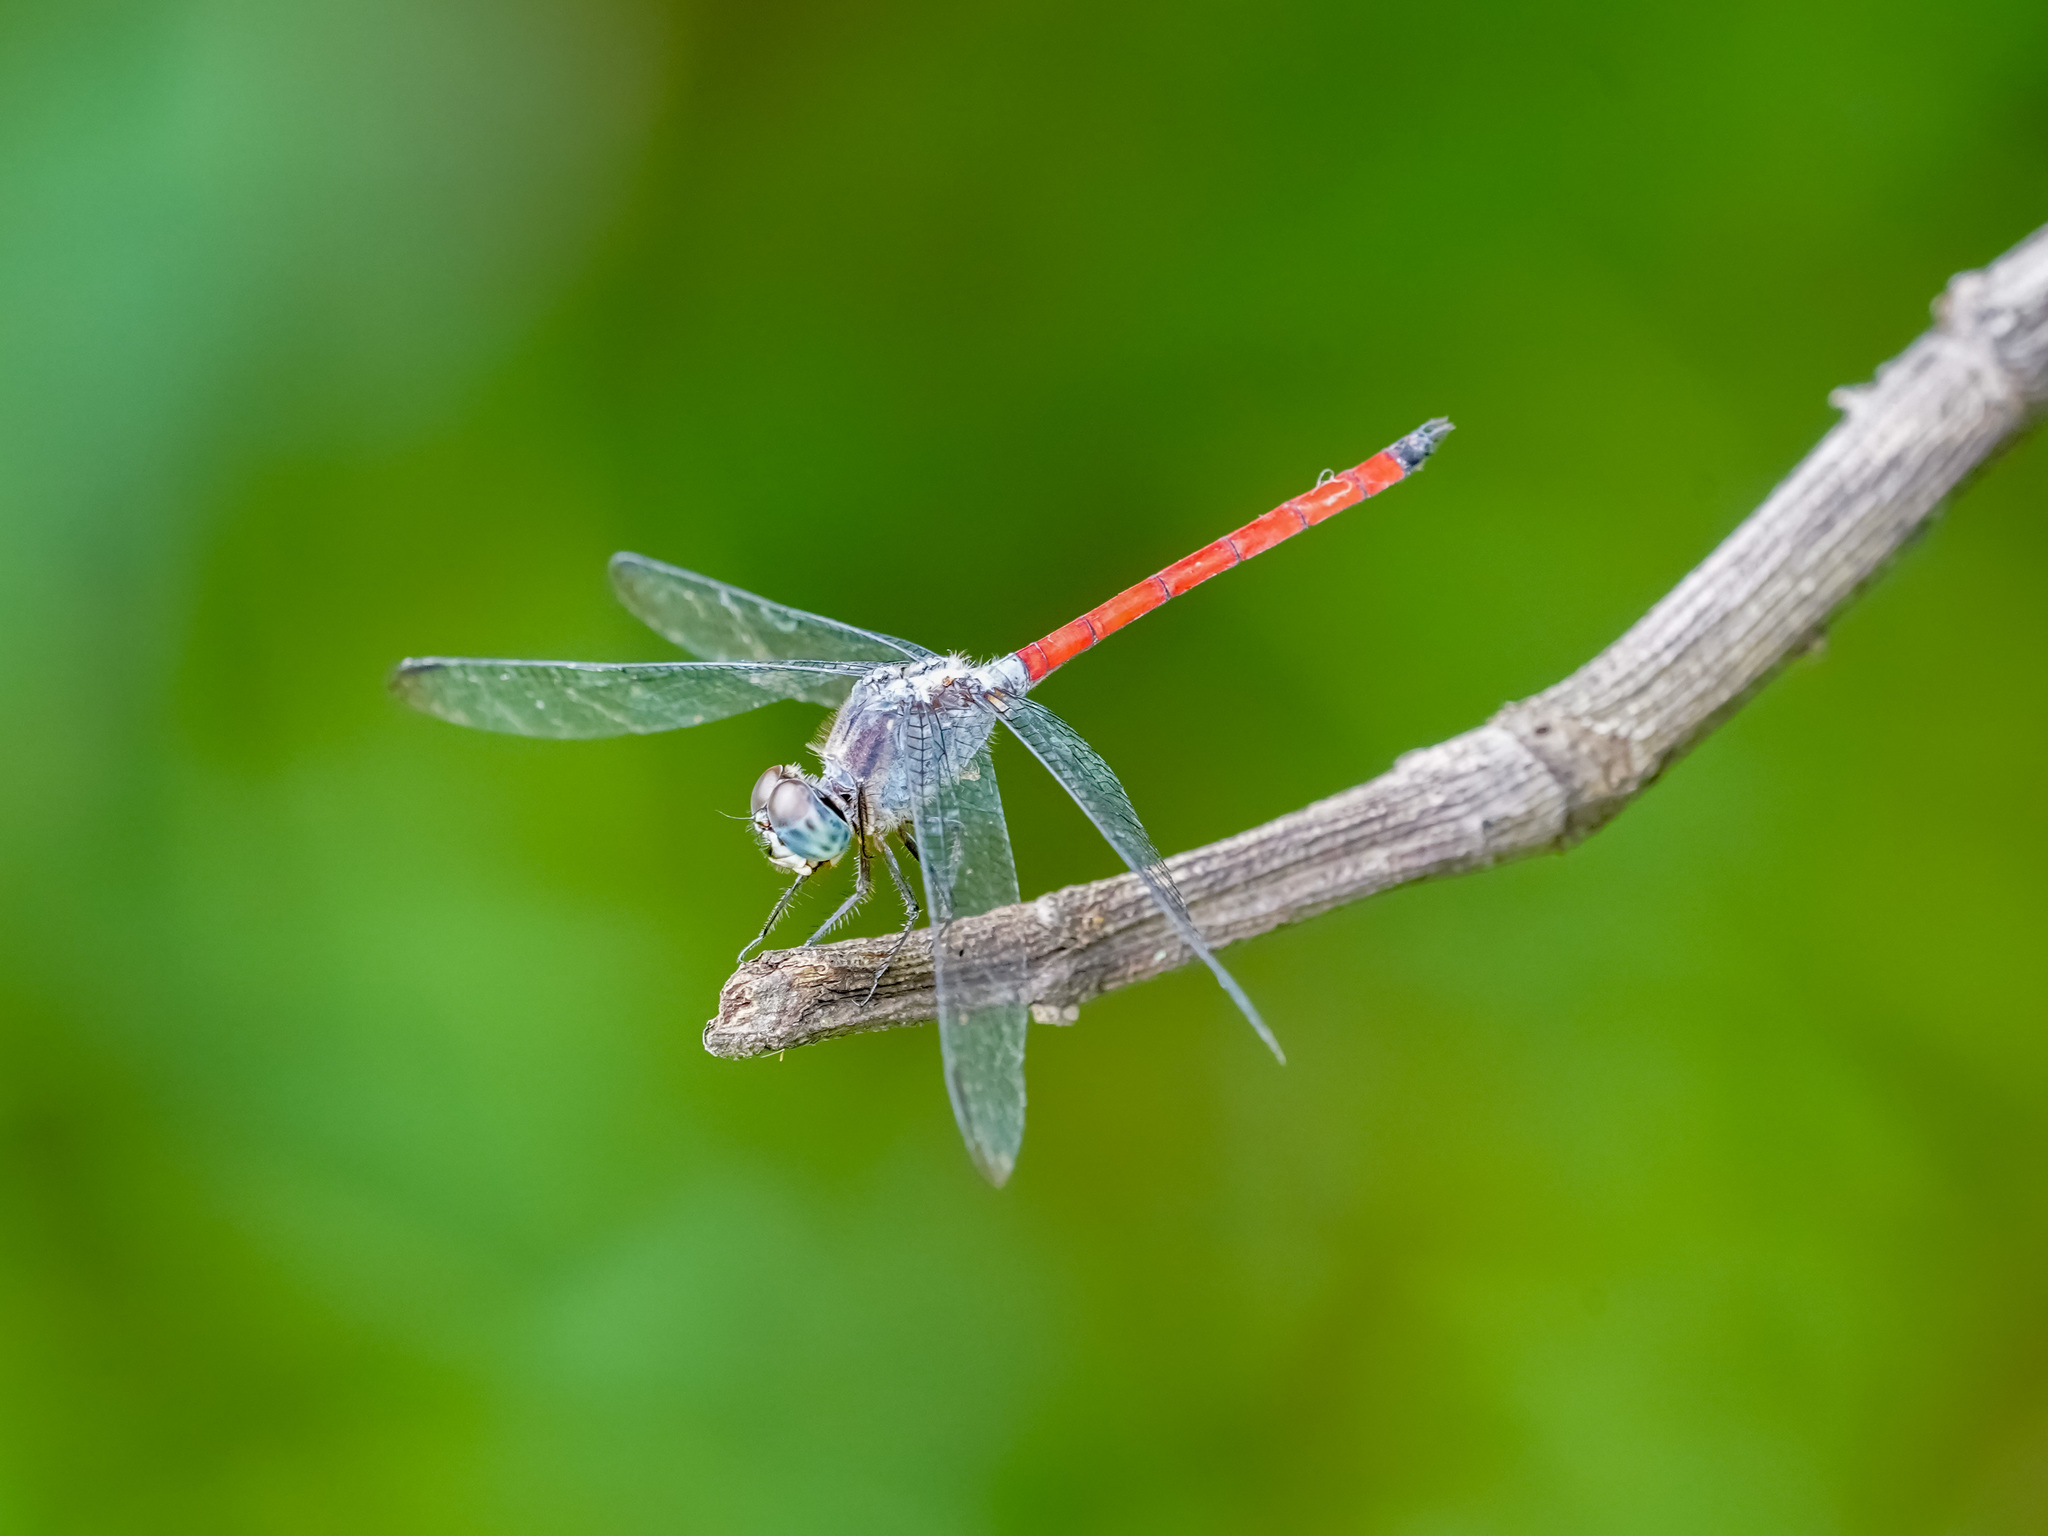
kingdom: Animalia
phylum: Arthropoda
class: Insecta
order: Odonata
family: Libellulidae
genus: Lathrecista
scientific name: Lathrecista asiatica
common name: Scarlet grenadier
